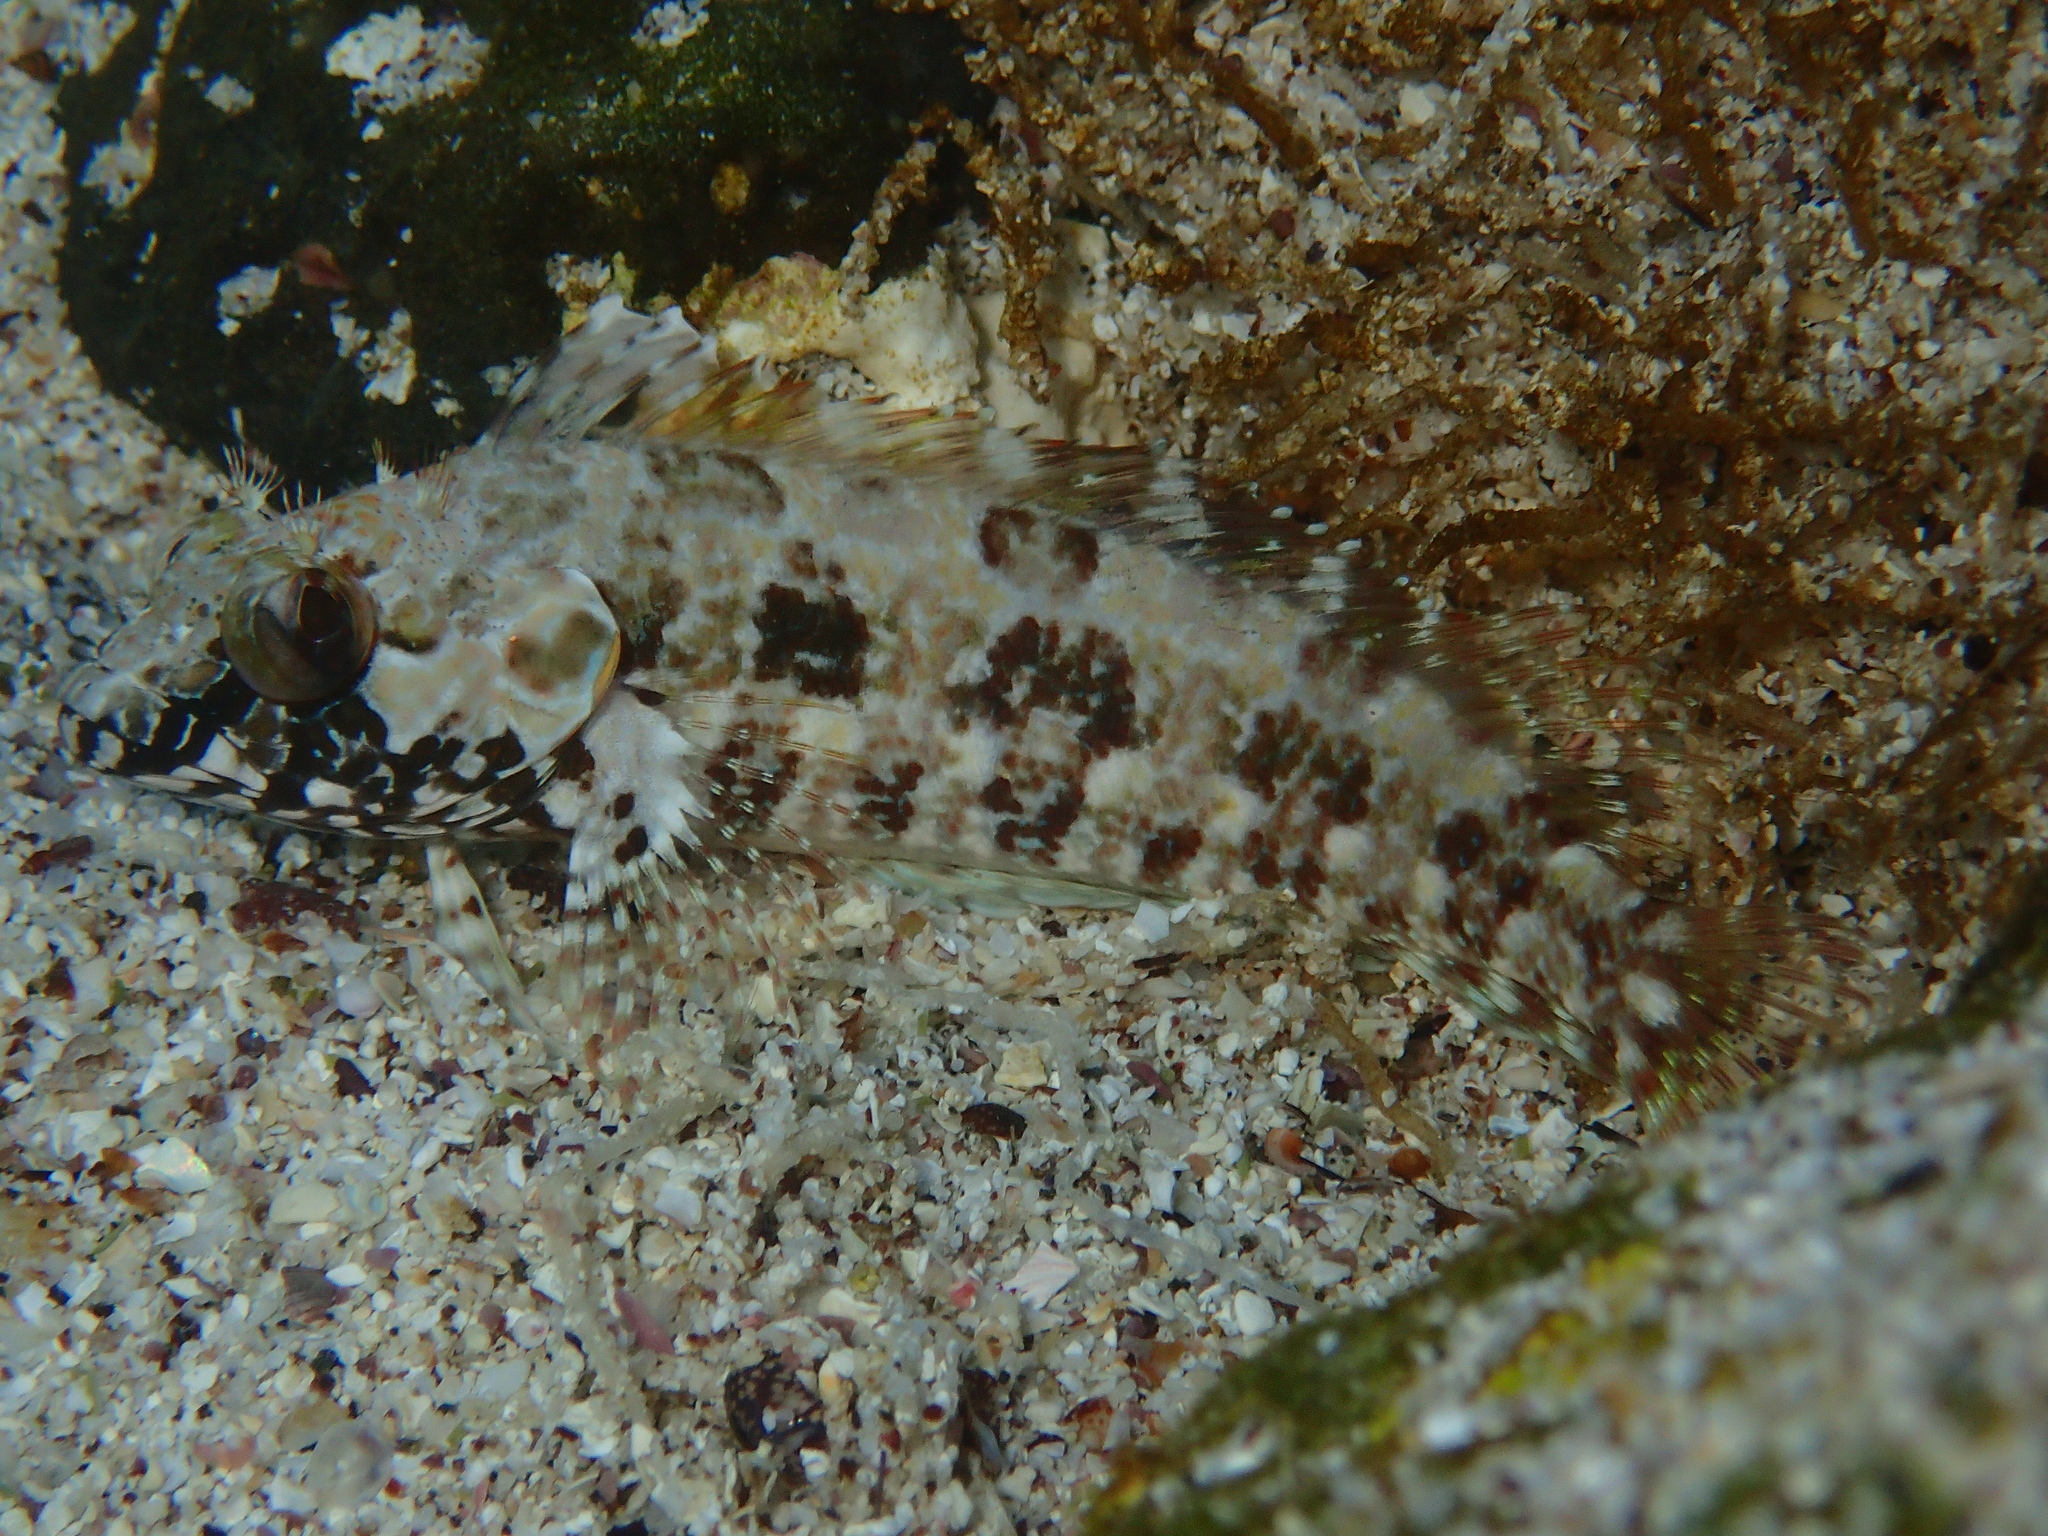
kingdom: Animalia
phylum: Chordata
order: Perciformes
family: Labrisomidae
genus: Gobioclinus
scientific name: Gobioclinus dendriticus
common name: Bravo clinid
